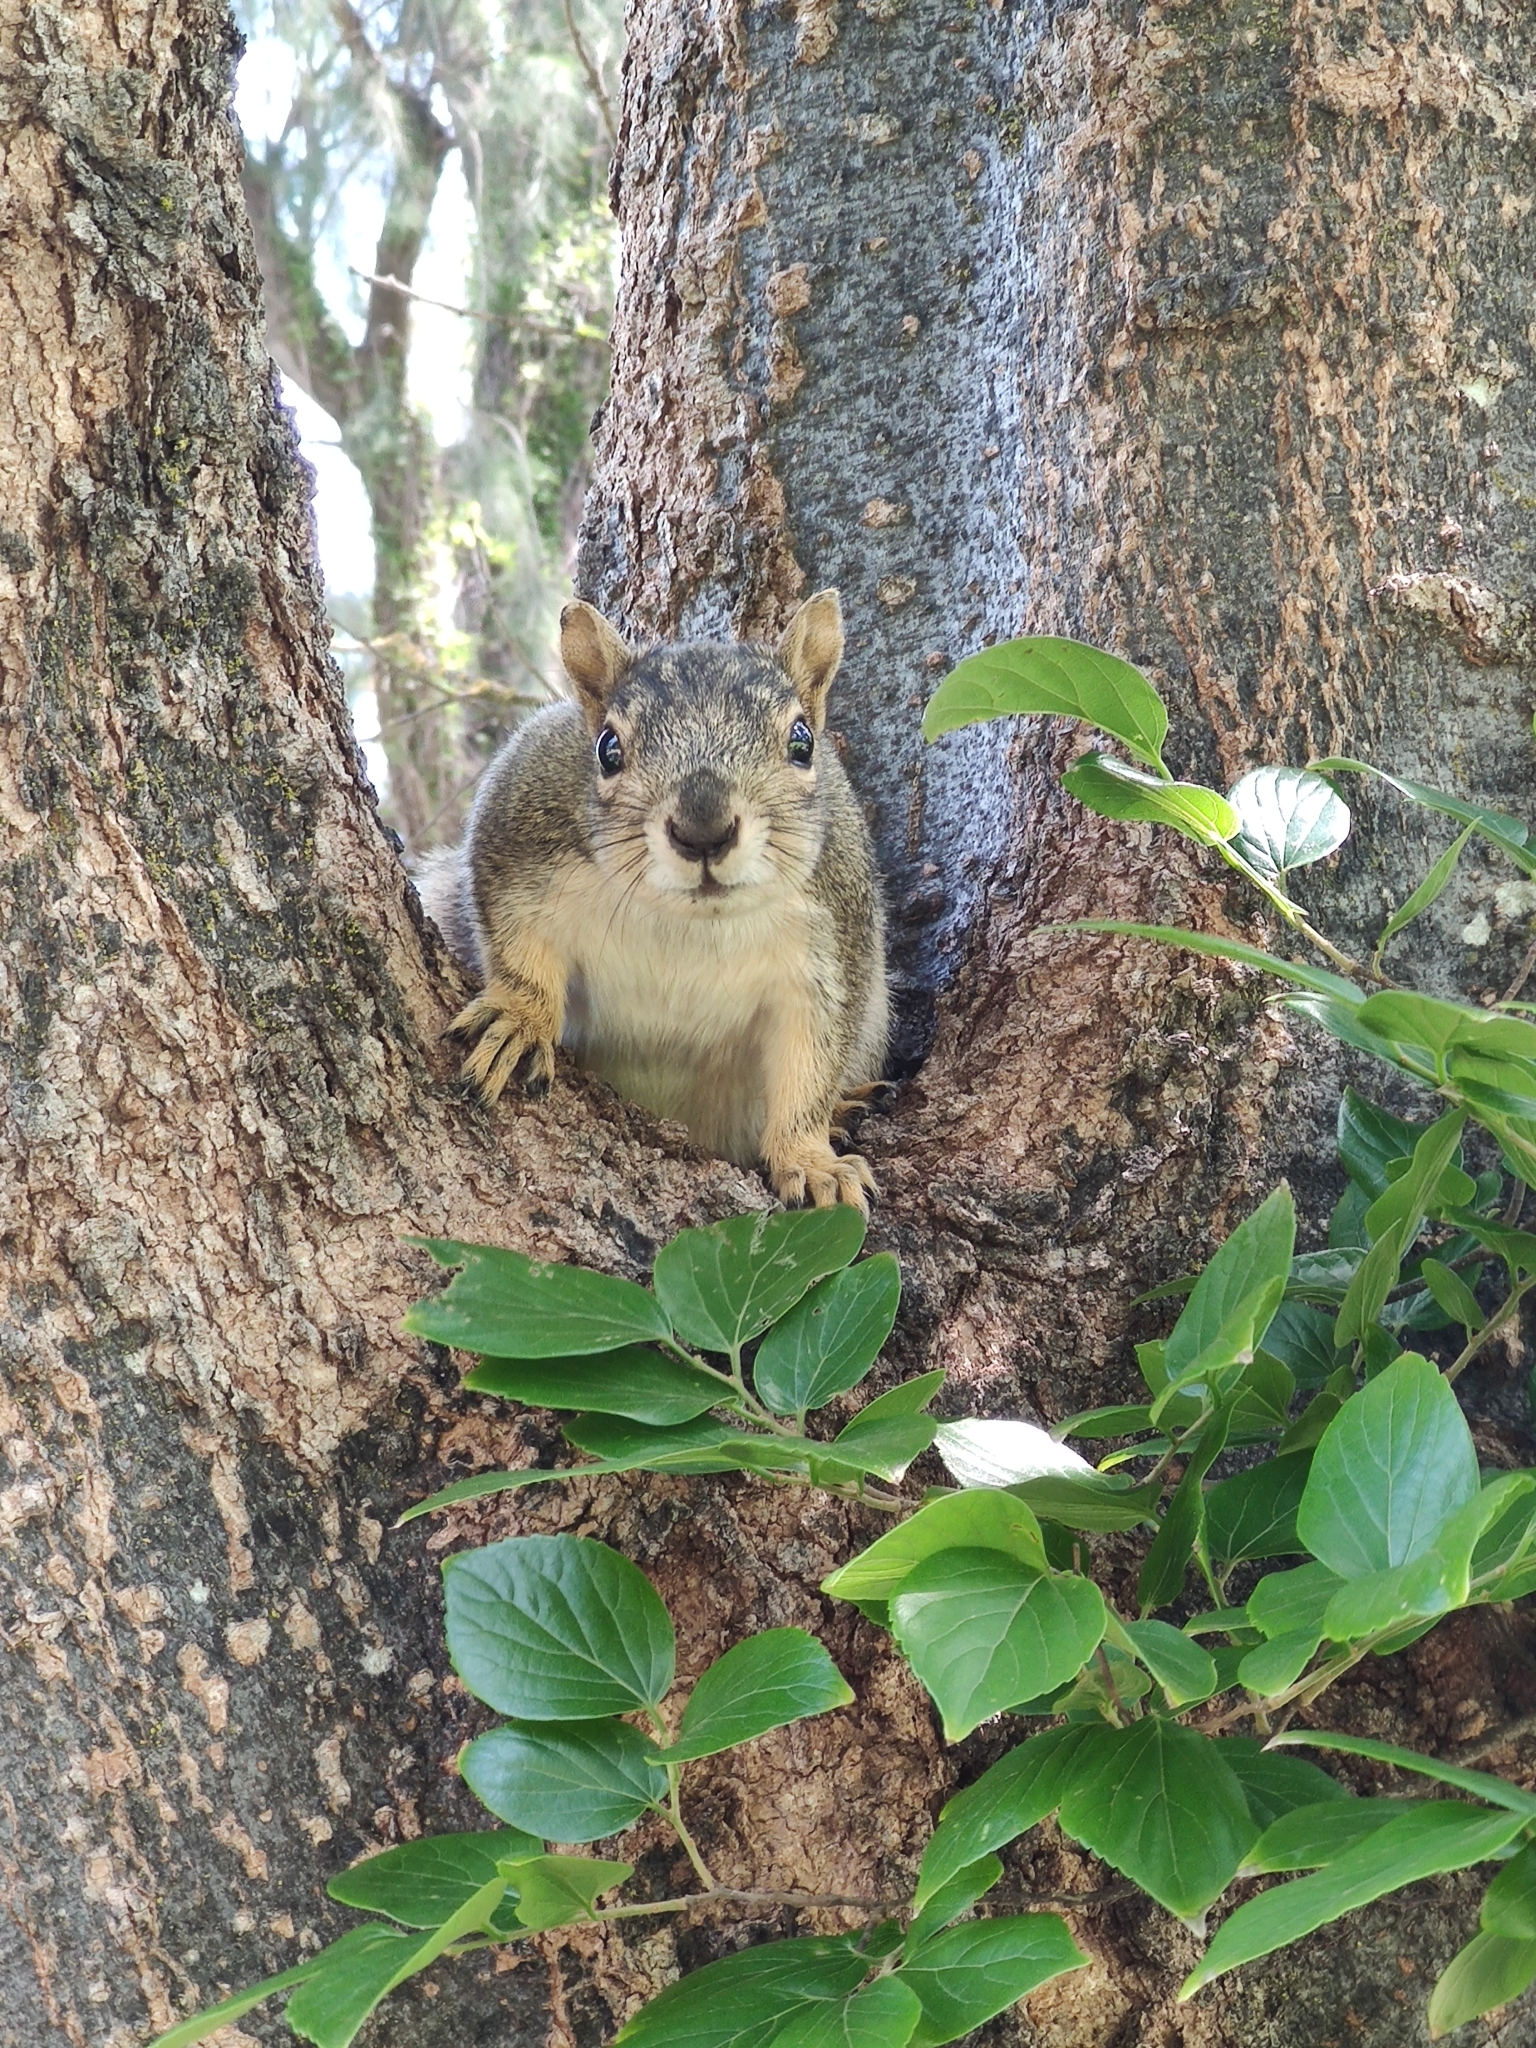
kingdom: Animalia
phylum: Chordata
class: Mammalia
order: Rodentia
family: Sciuridae
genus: Sciurus
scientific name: Sciurus niger
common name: Fox squirrel
